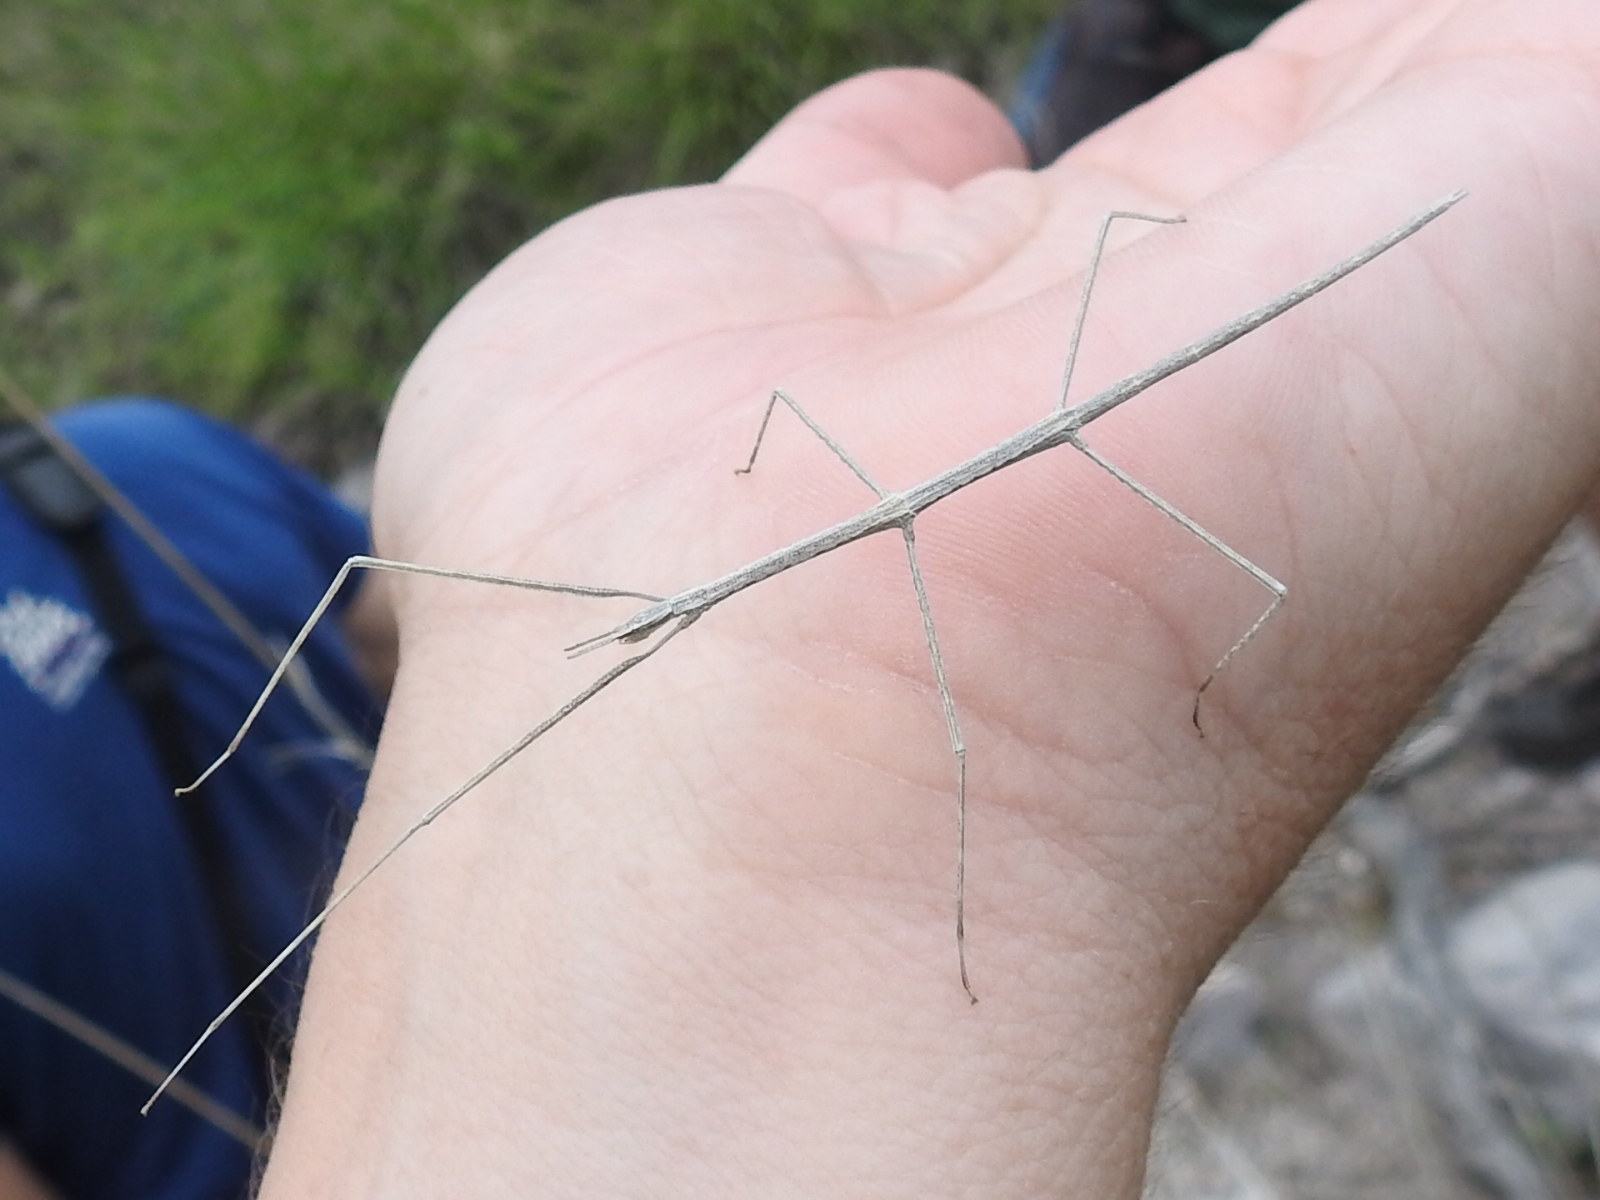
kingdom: Animalia
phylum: Arthropoda
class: Insecta
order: Phasmida
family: Heteronemiidae
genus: Parabacillus
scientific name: Parabacillus hesperus
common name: Western short-horned walkingstick
